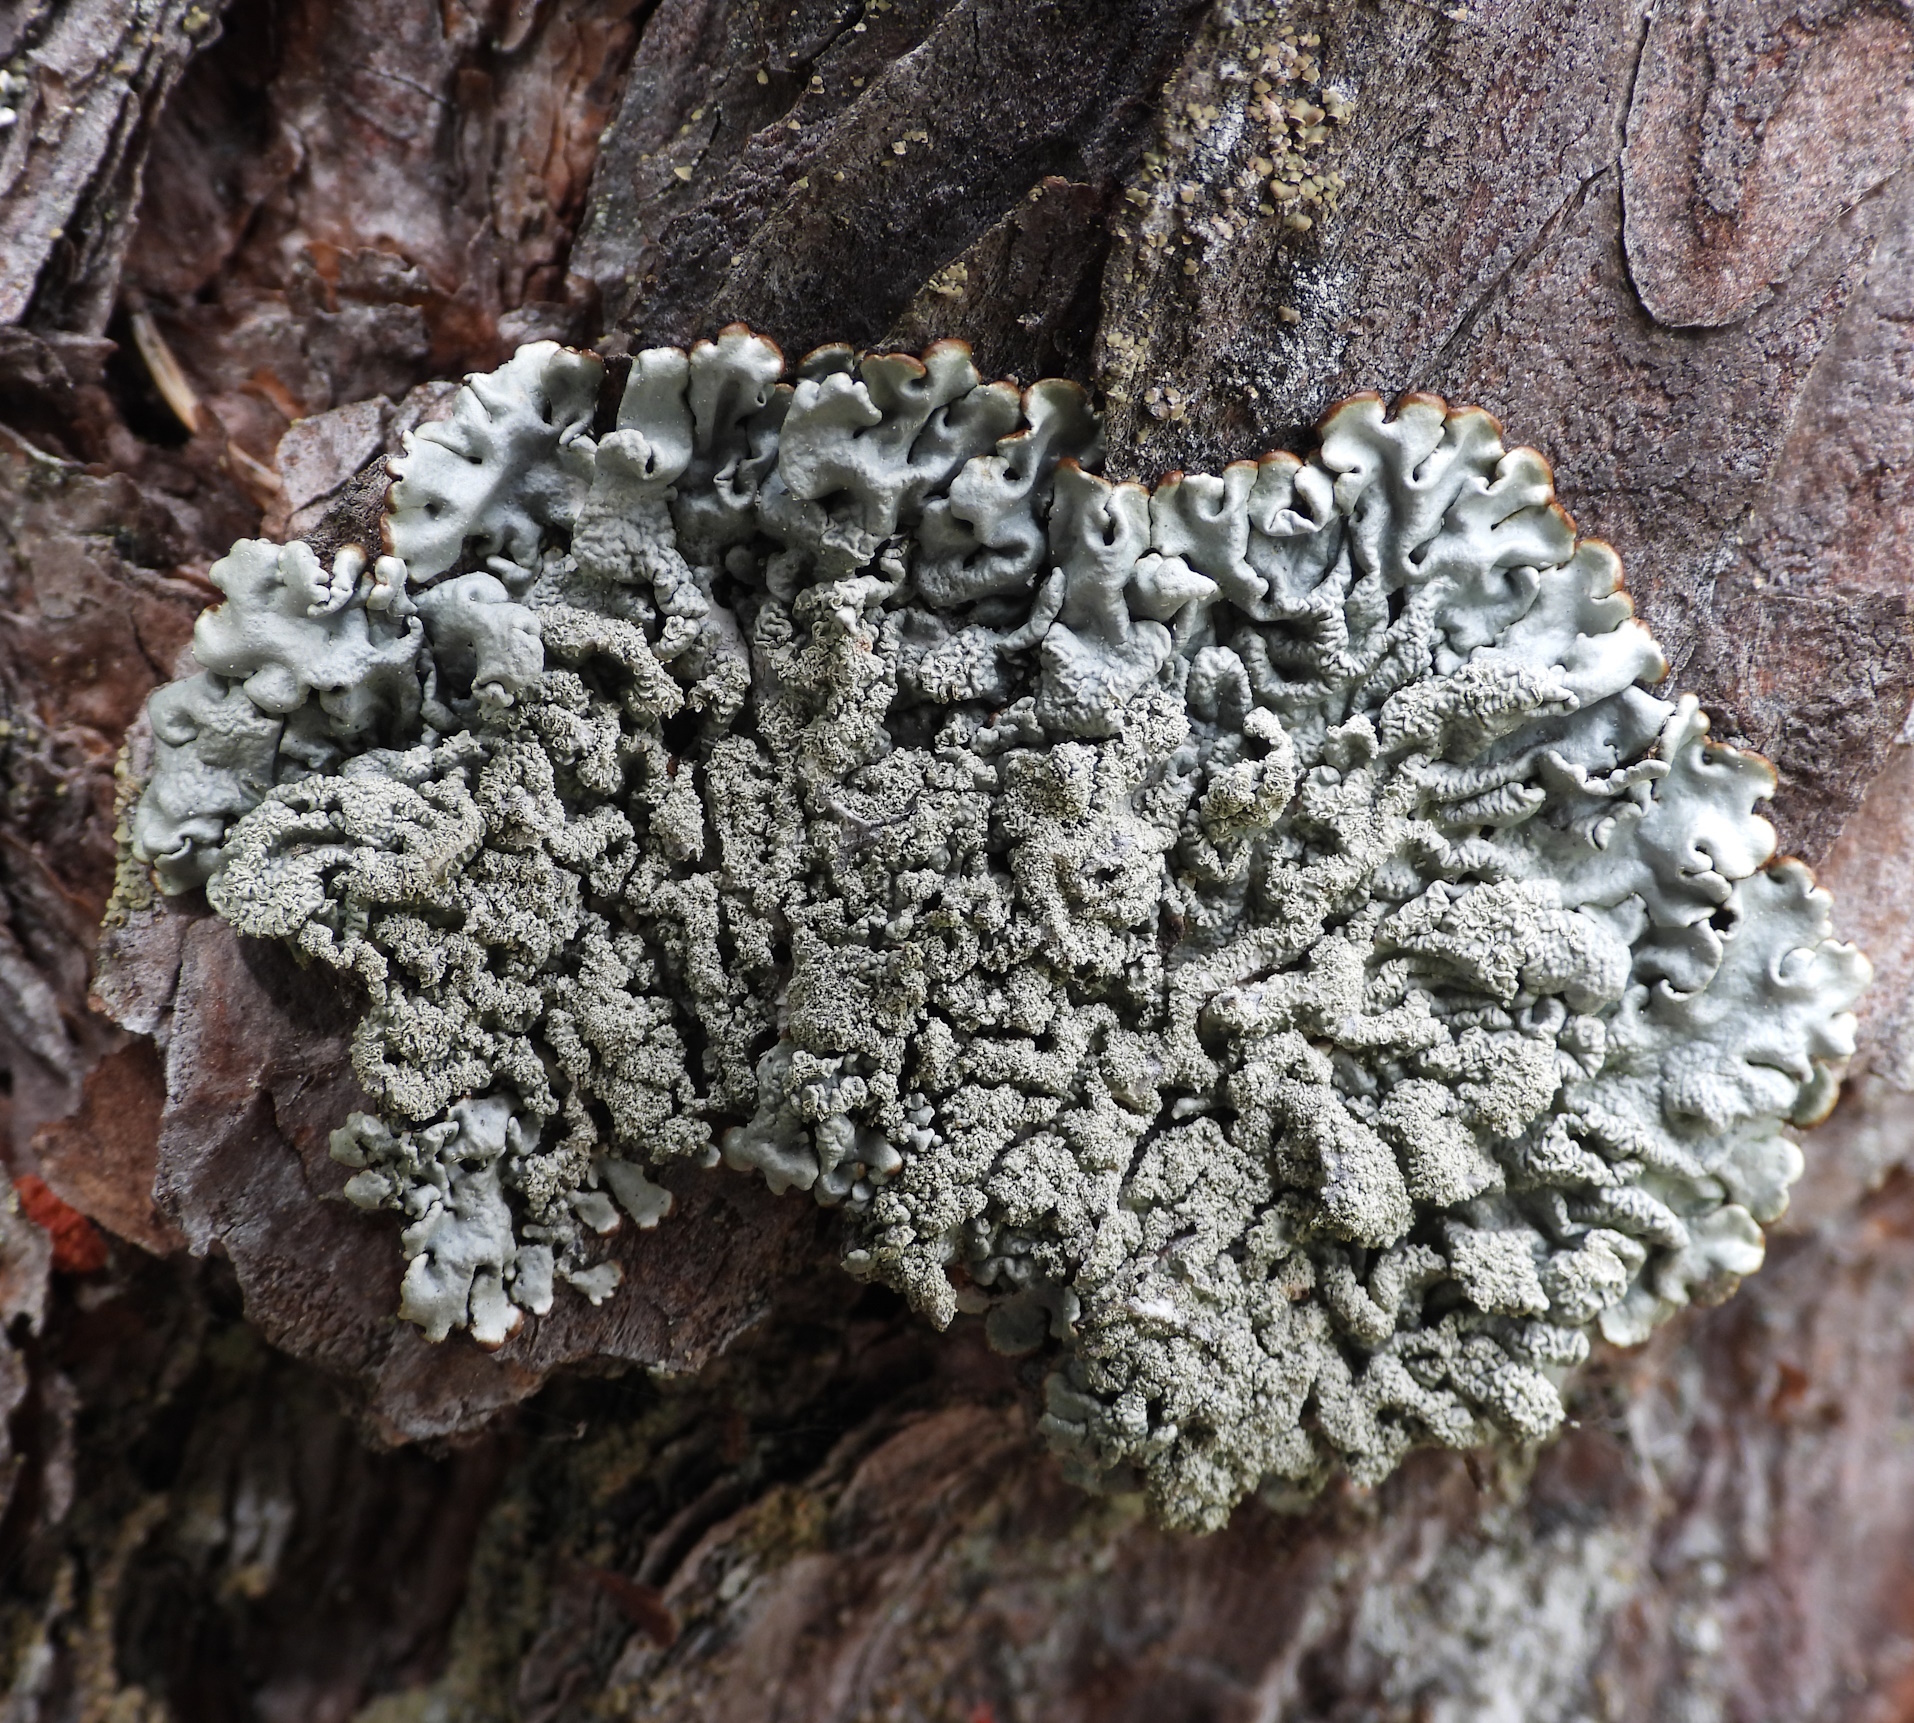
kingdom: Fungi
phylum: Ascomycota
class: Lecanoromycetes
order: Lecanorales
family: Parmeliaceae
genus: Hypogymnia
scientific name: Hypogymnia farinacea
